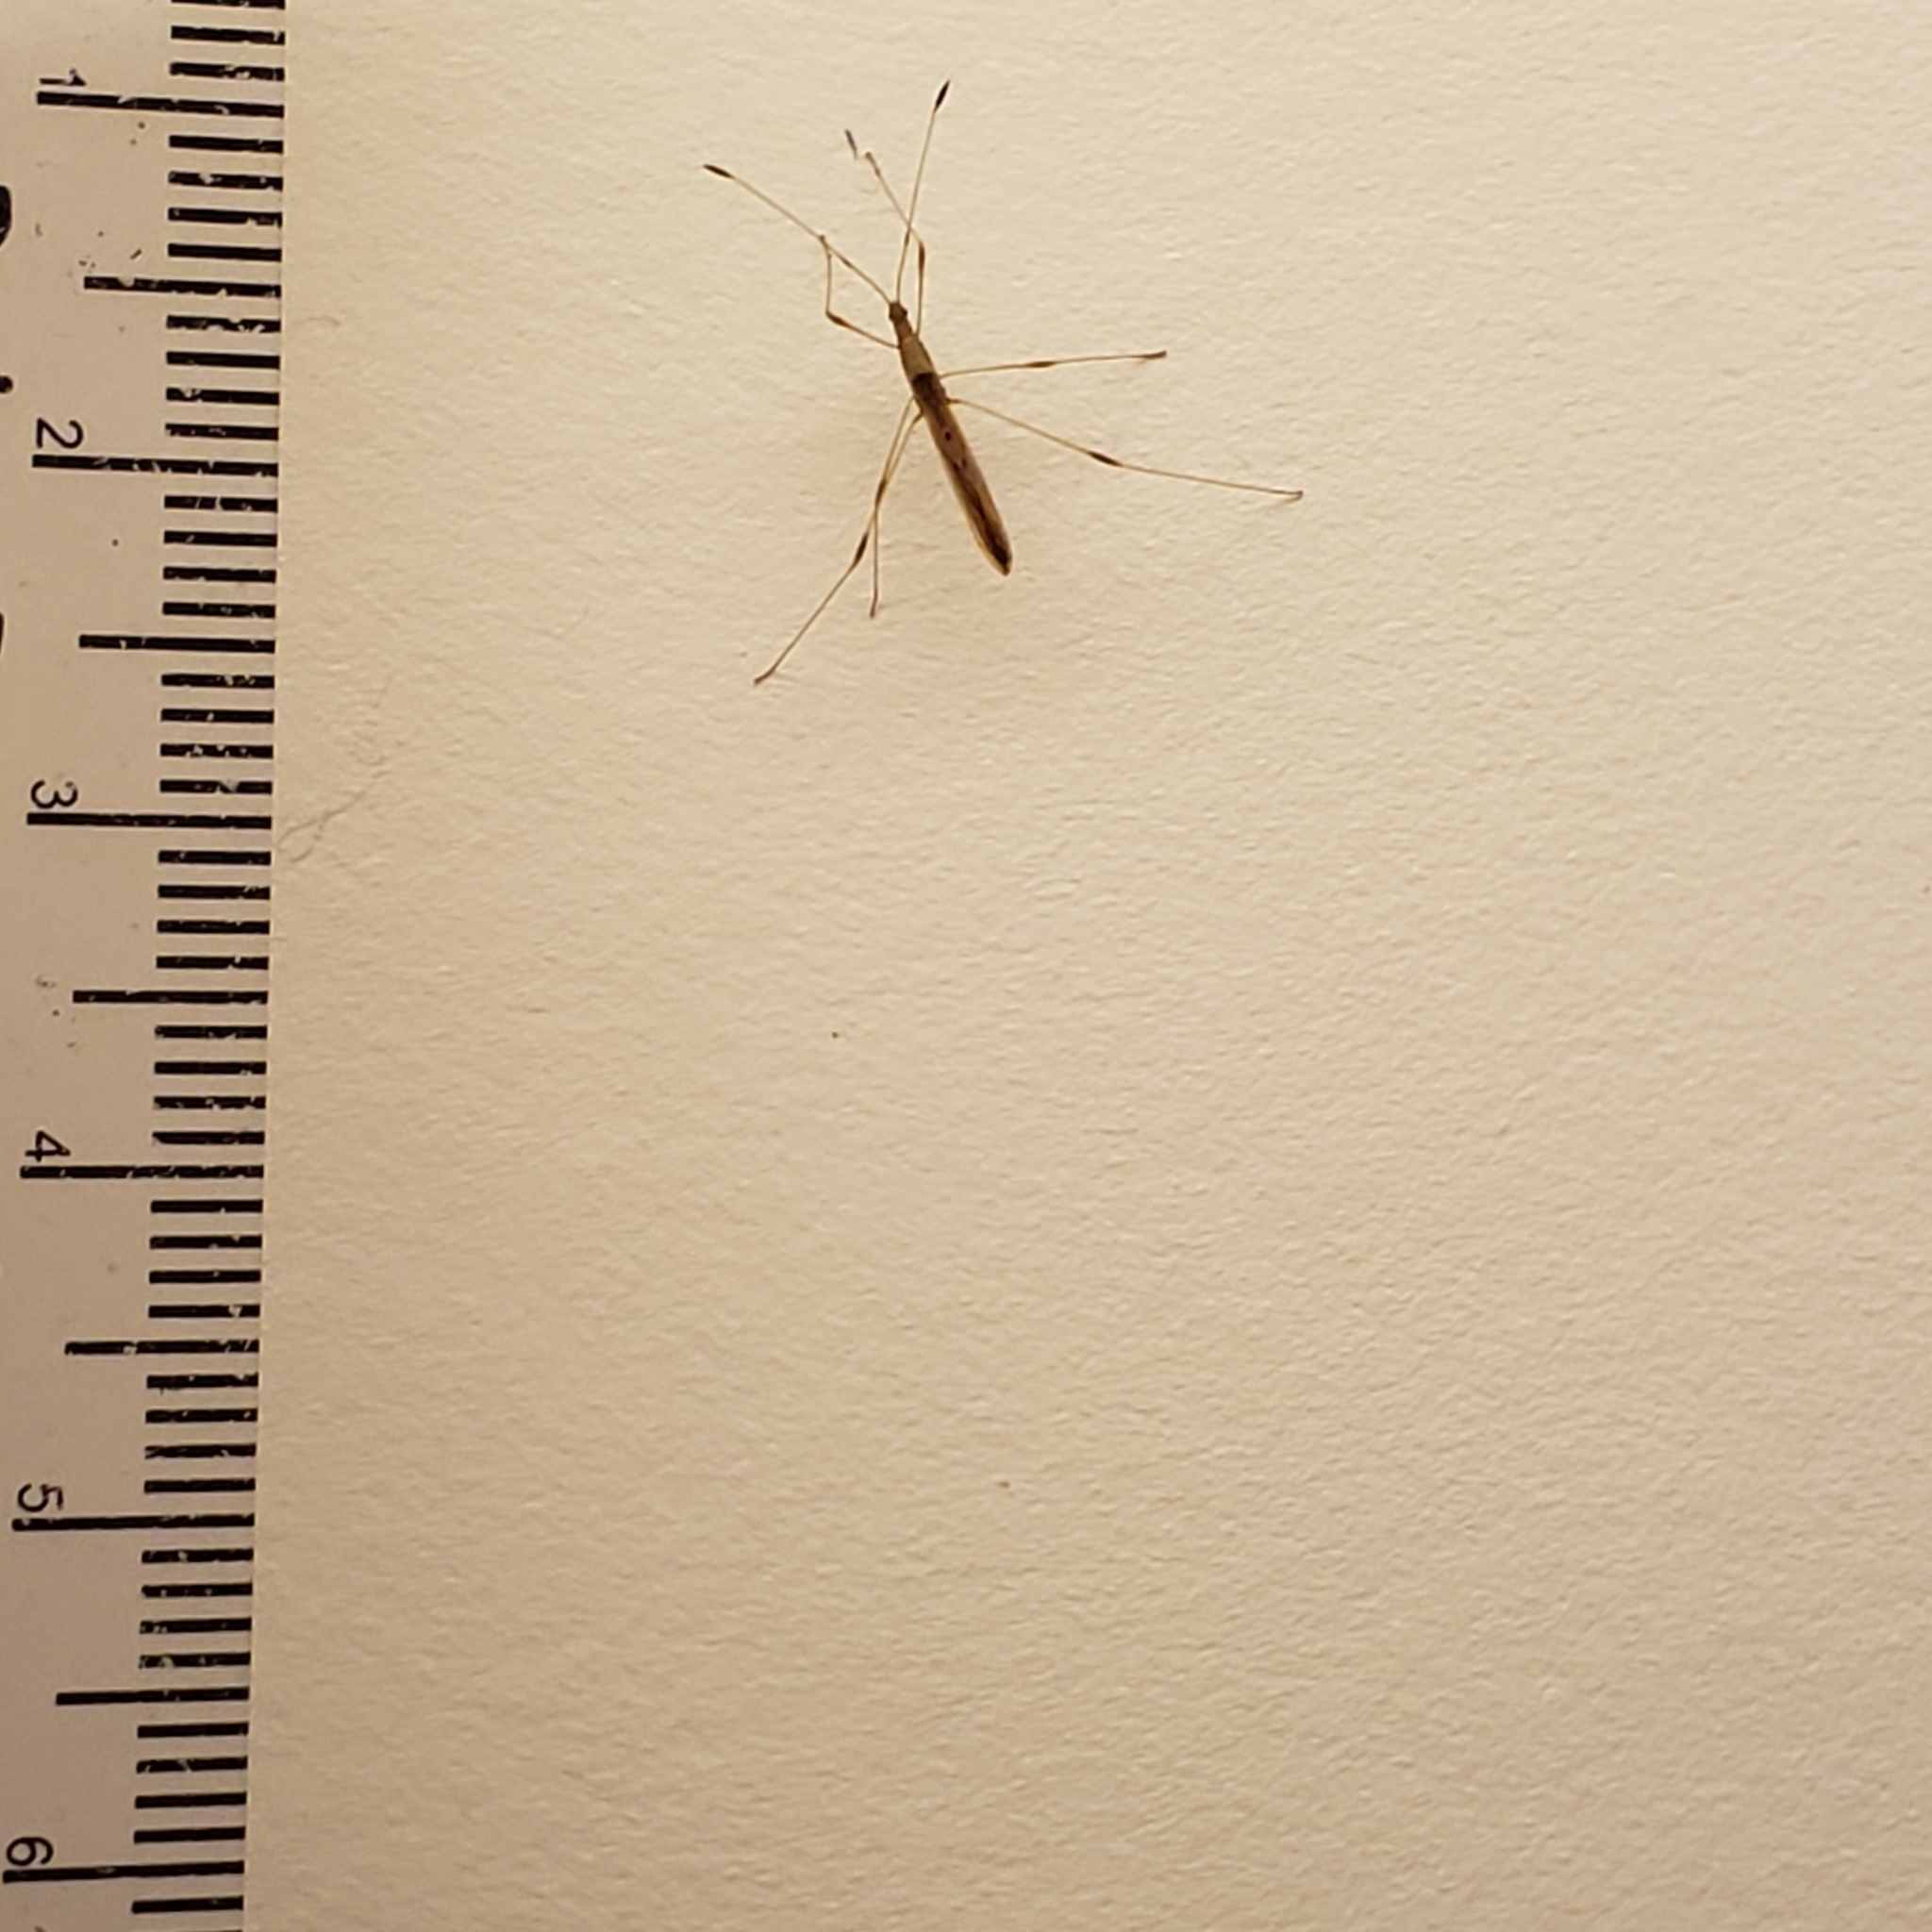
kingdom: Animalia
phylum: Arthropoda
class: Insecta
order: Hemiptera
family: Berytidae
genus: Neoneides
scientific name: Neoneides muticus
